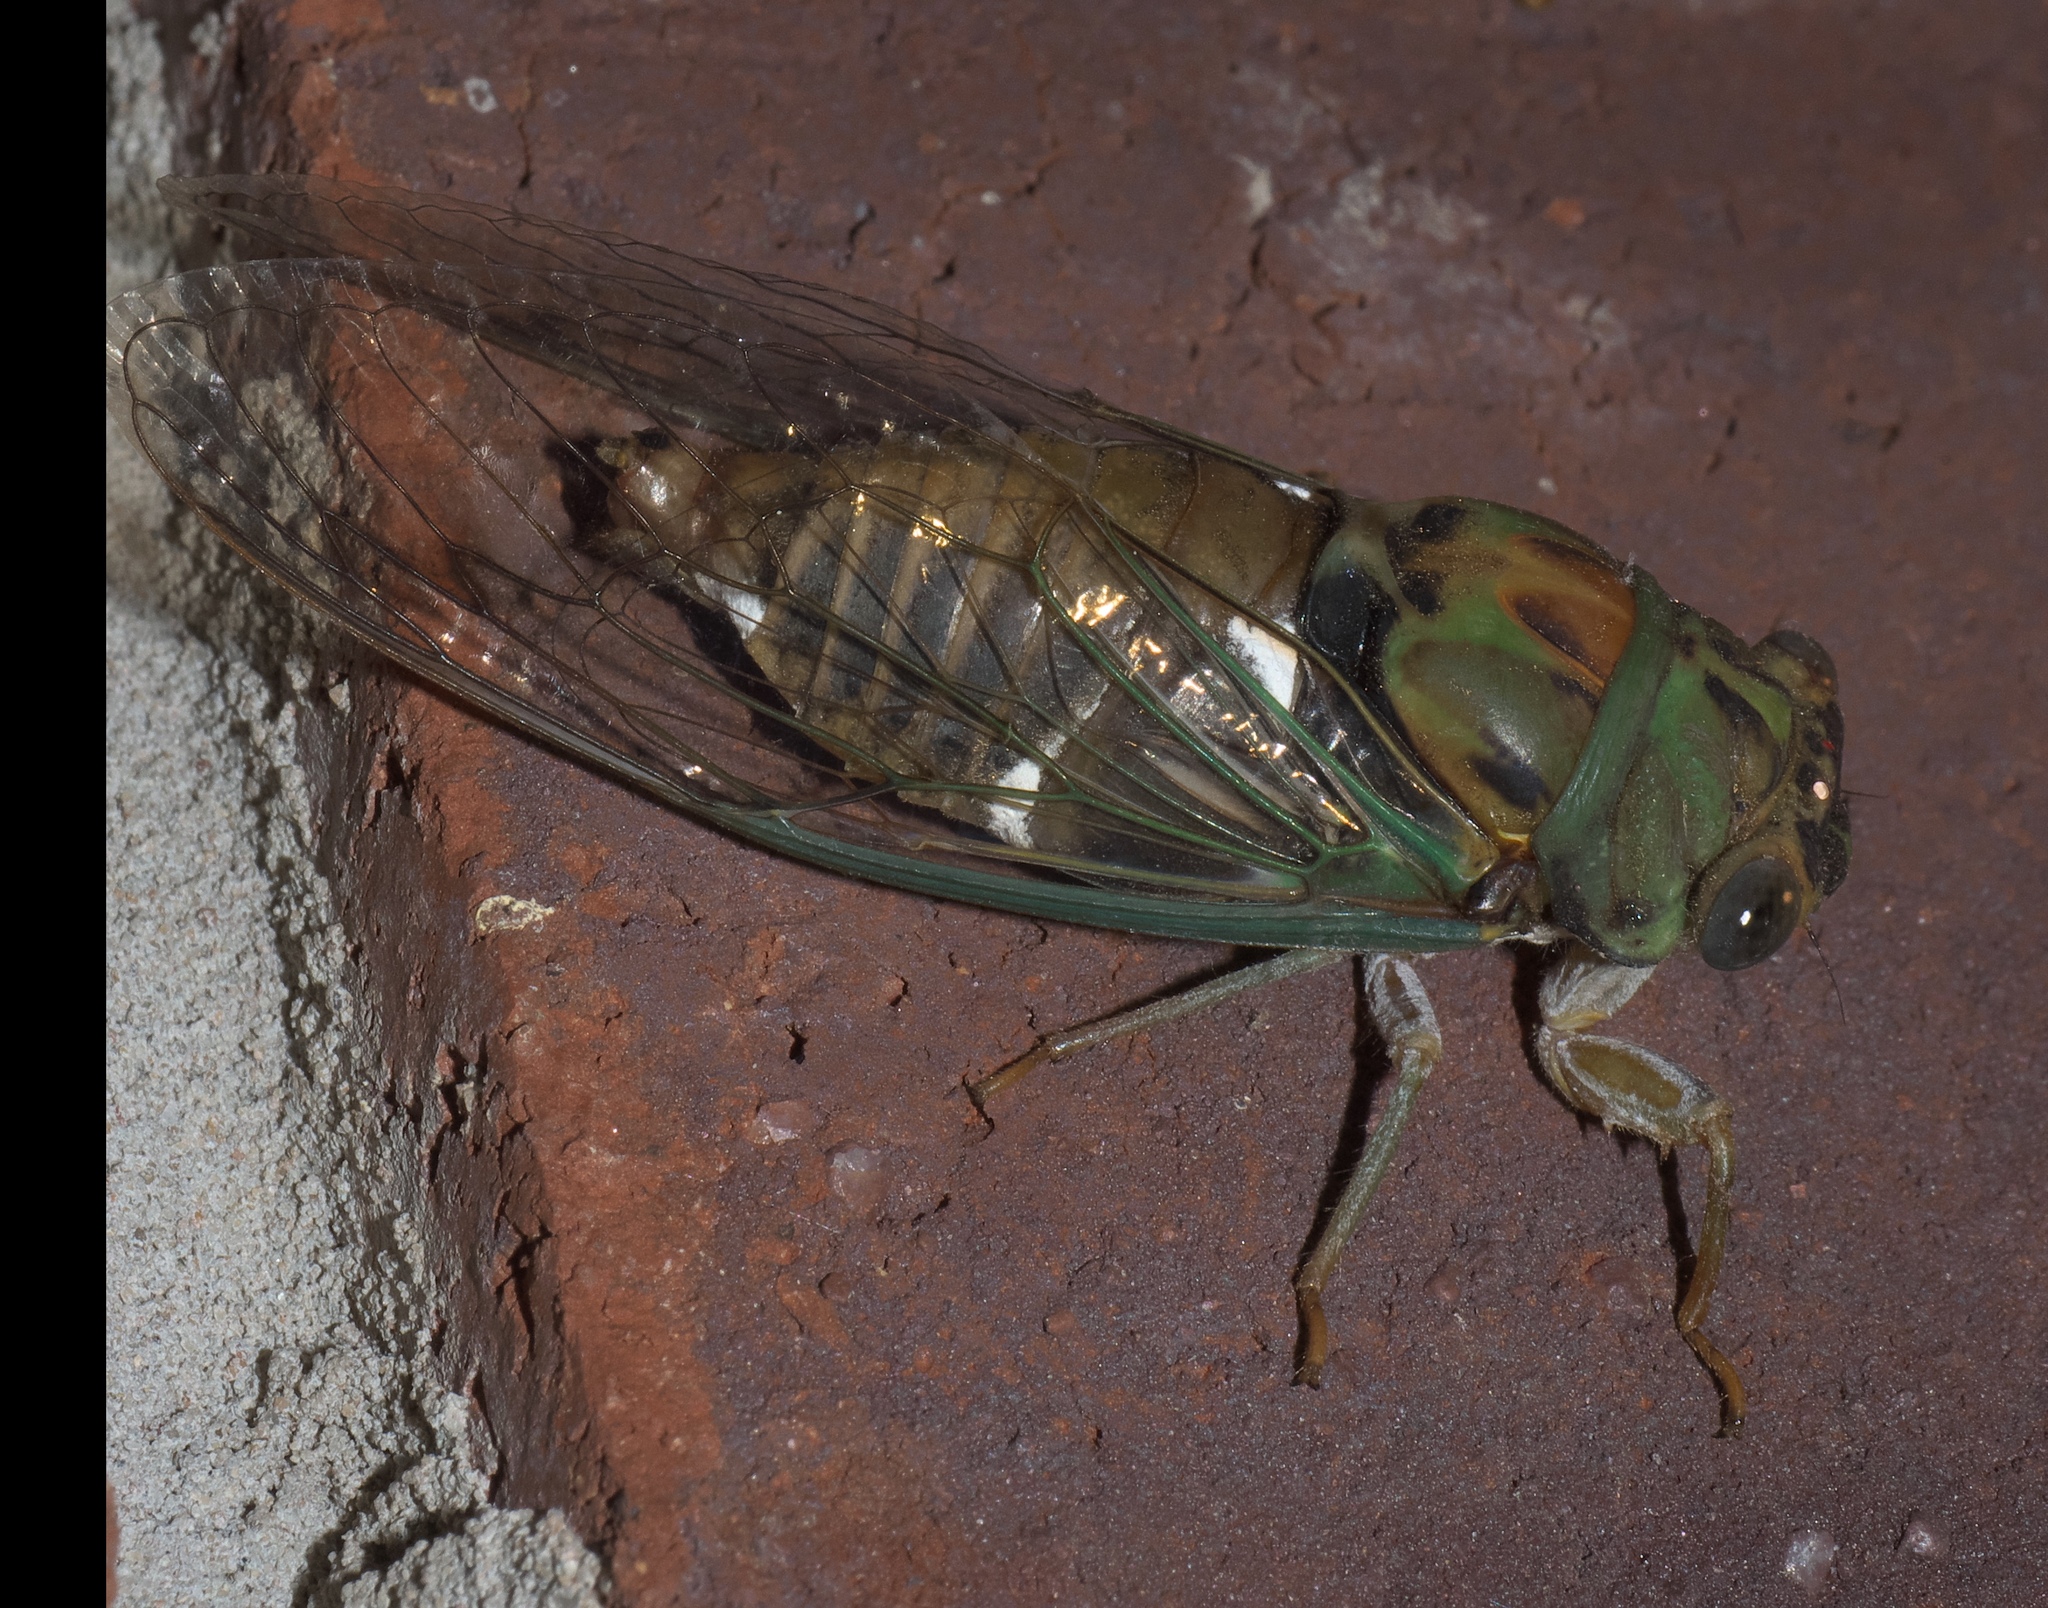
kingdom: Animalia
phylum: Arthropoda
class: Insecta
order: Hemiptera
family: Cicadidae
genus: Neotibicen
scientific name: Neotibicen pruinosus
